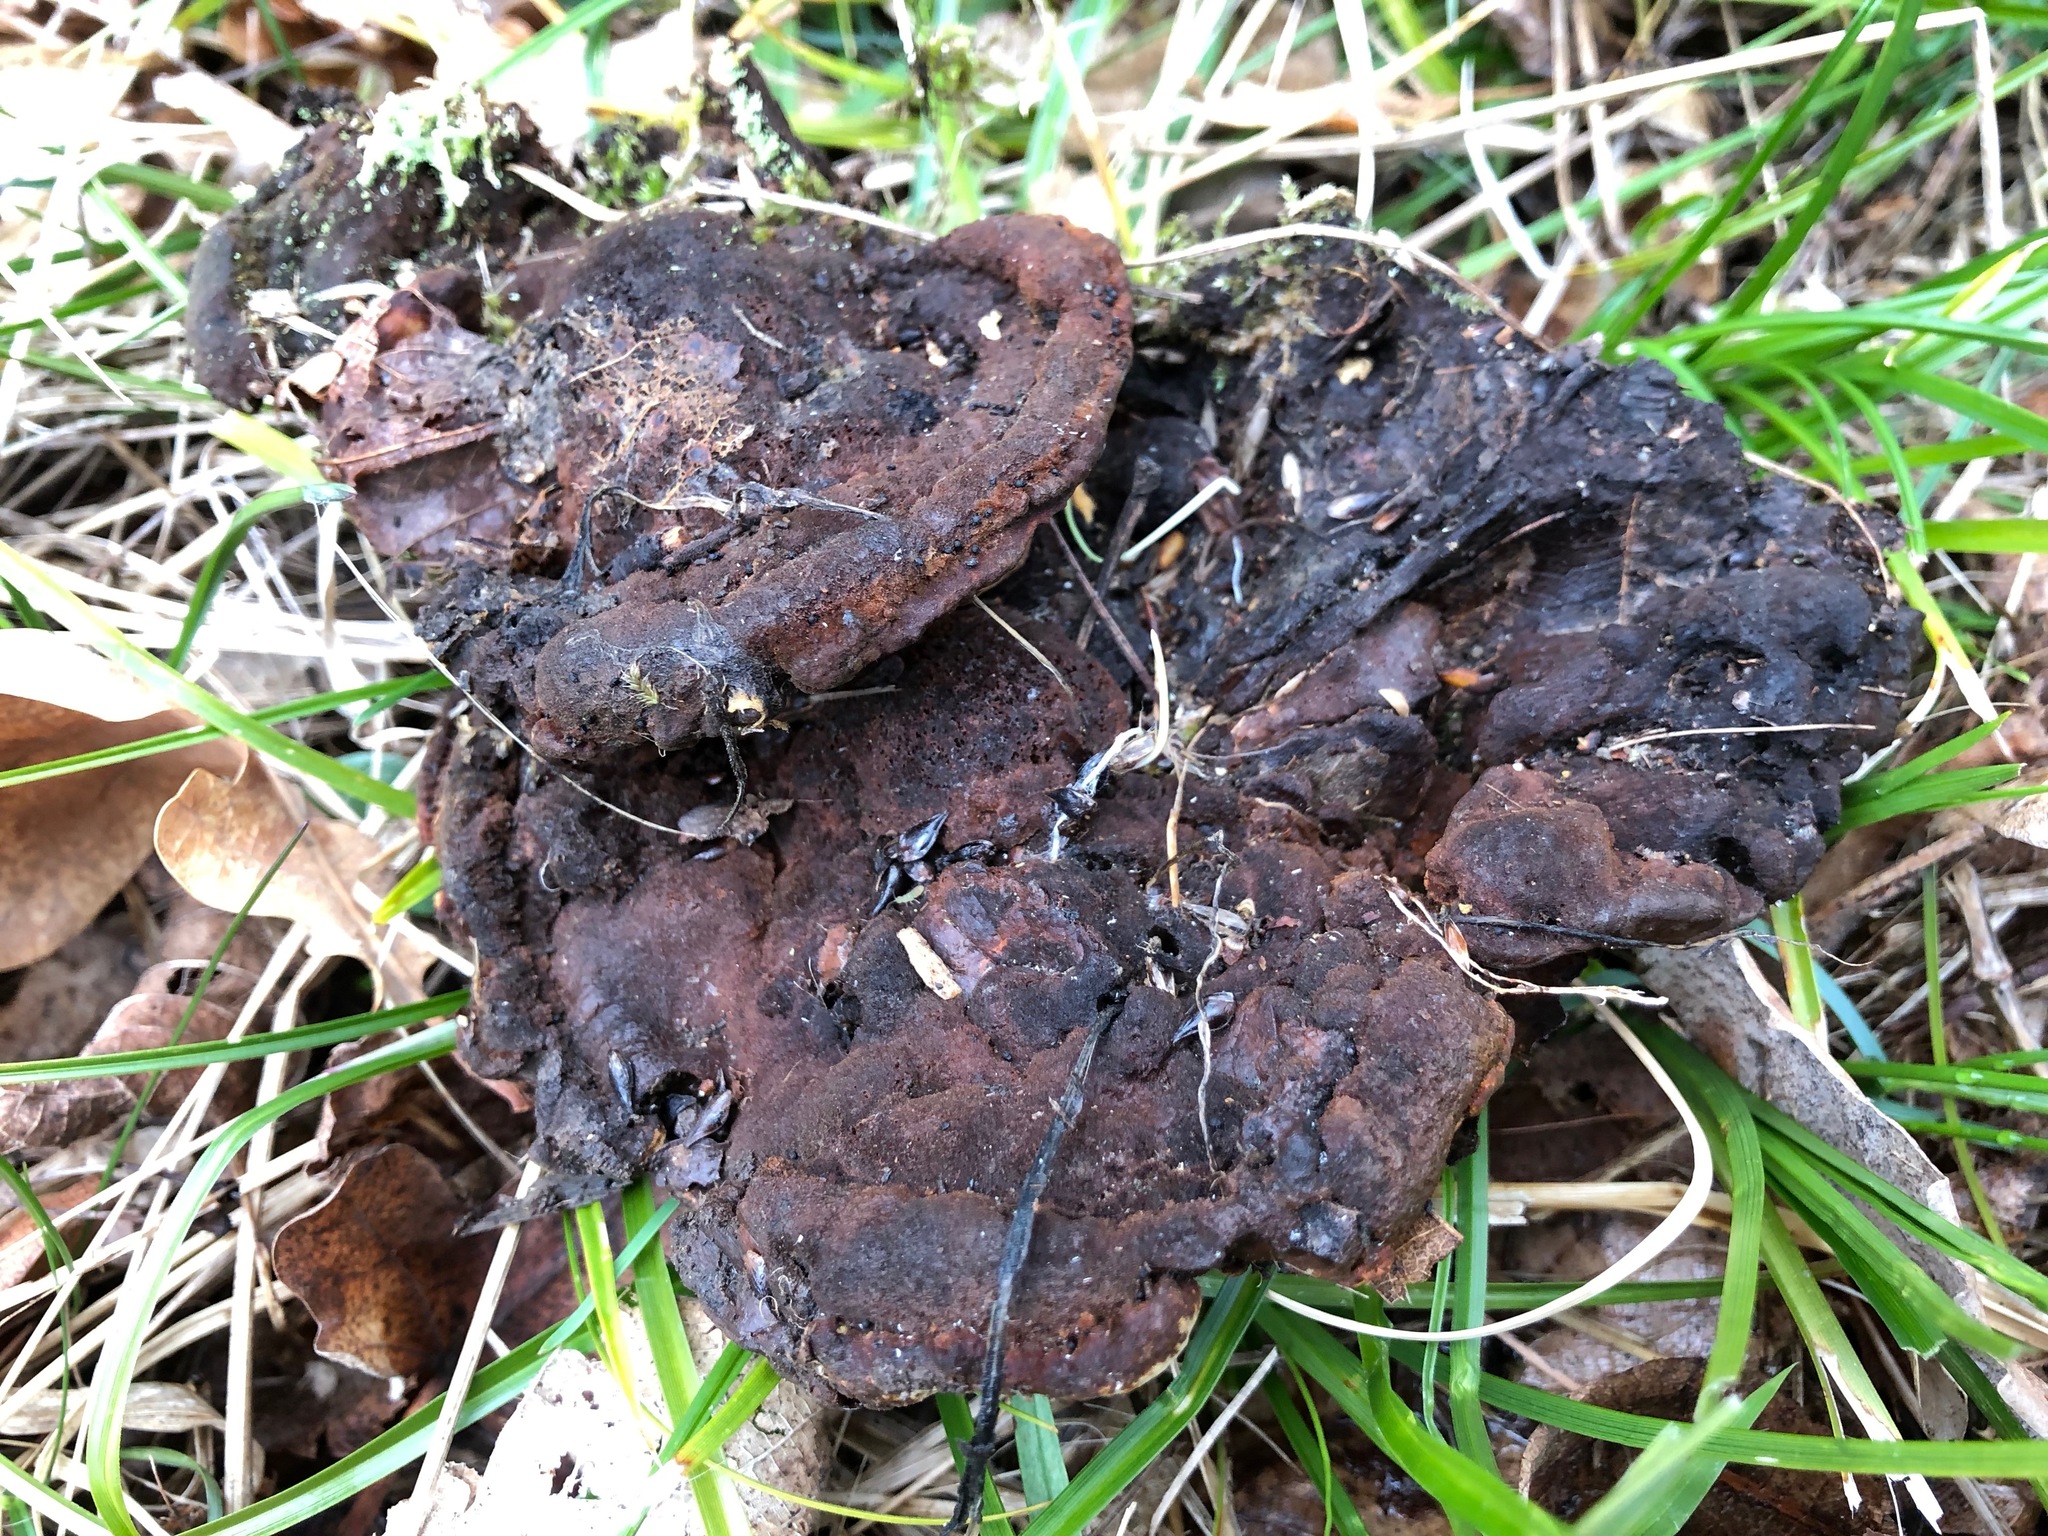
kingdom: Fungi
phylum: Basidiomycota
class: Agaricomycetes
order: Gloeophyllales
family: Gloeophyllaceae
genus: Gloeophyllum
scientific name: Gloeophyllum odoratum
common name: Anise mazegill
